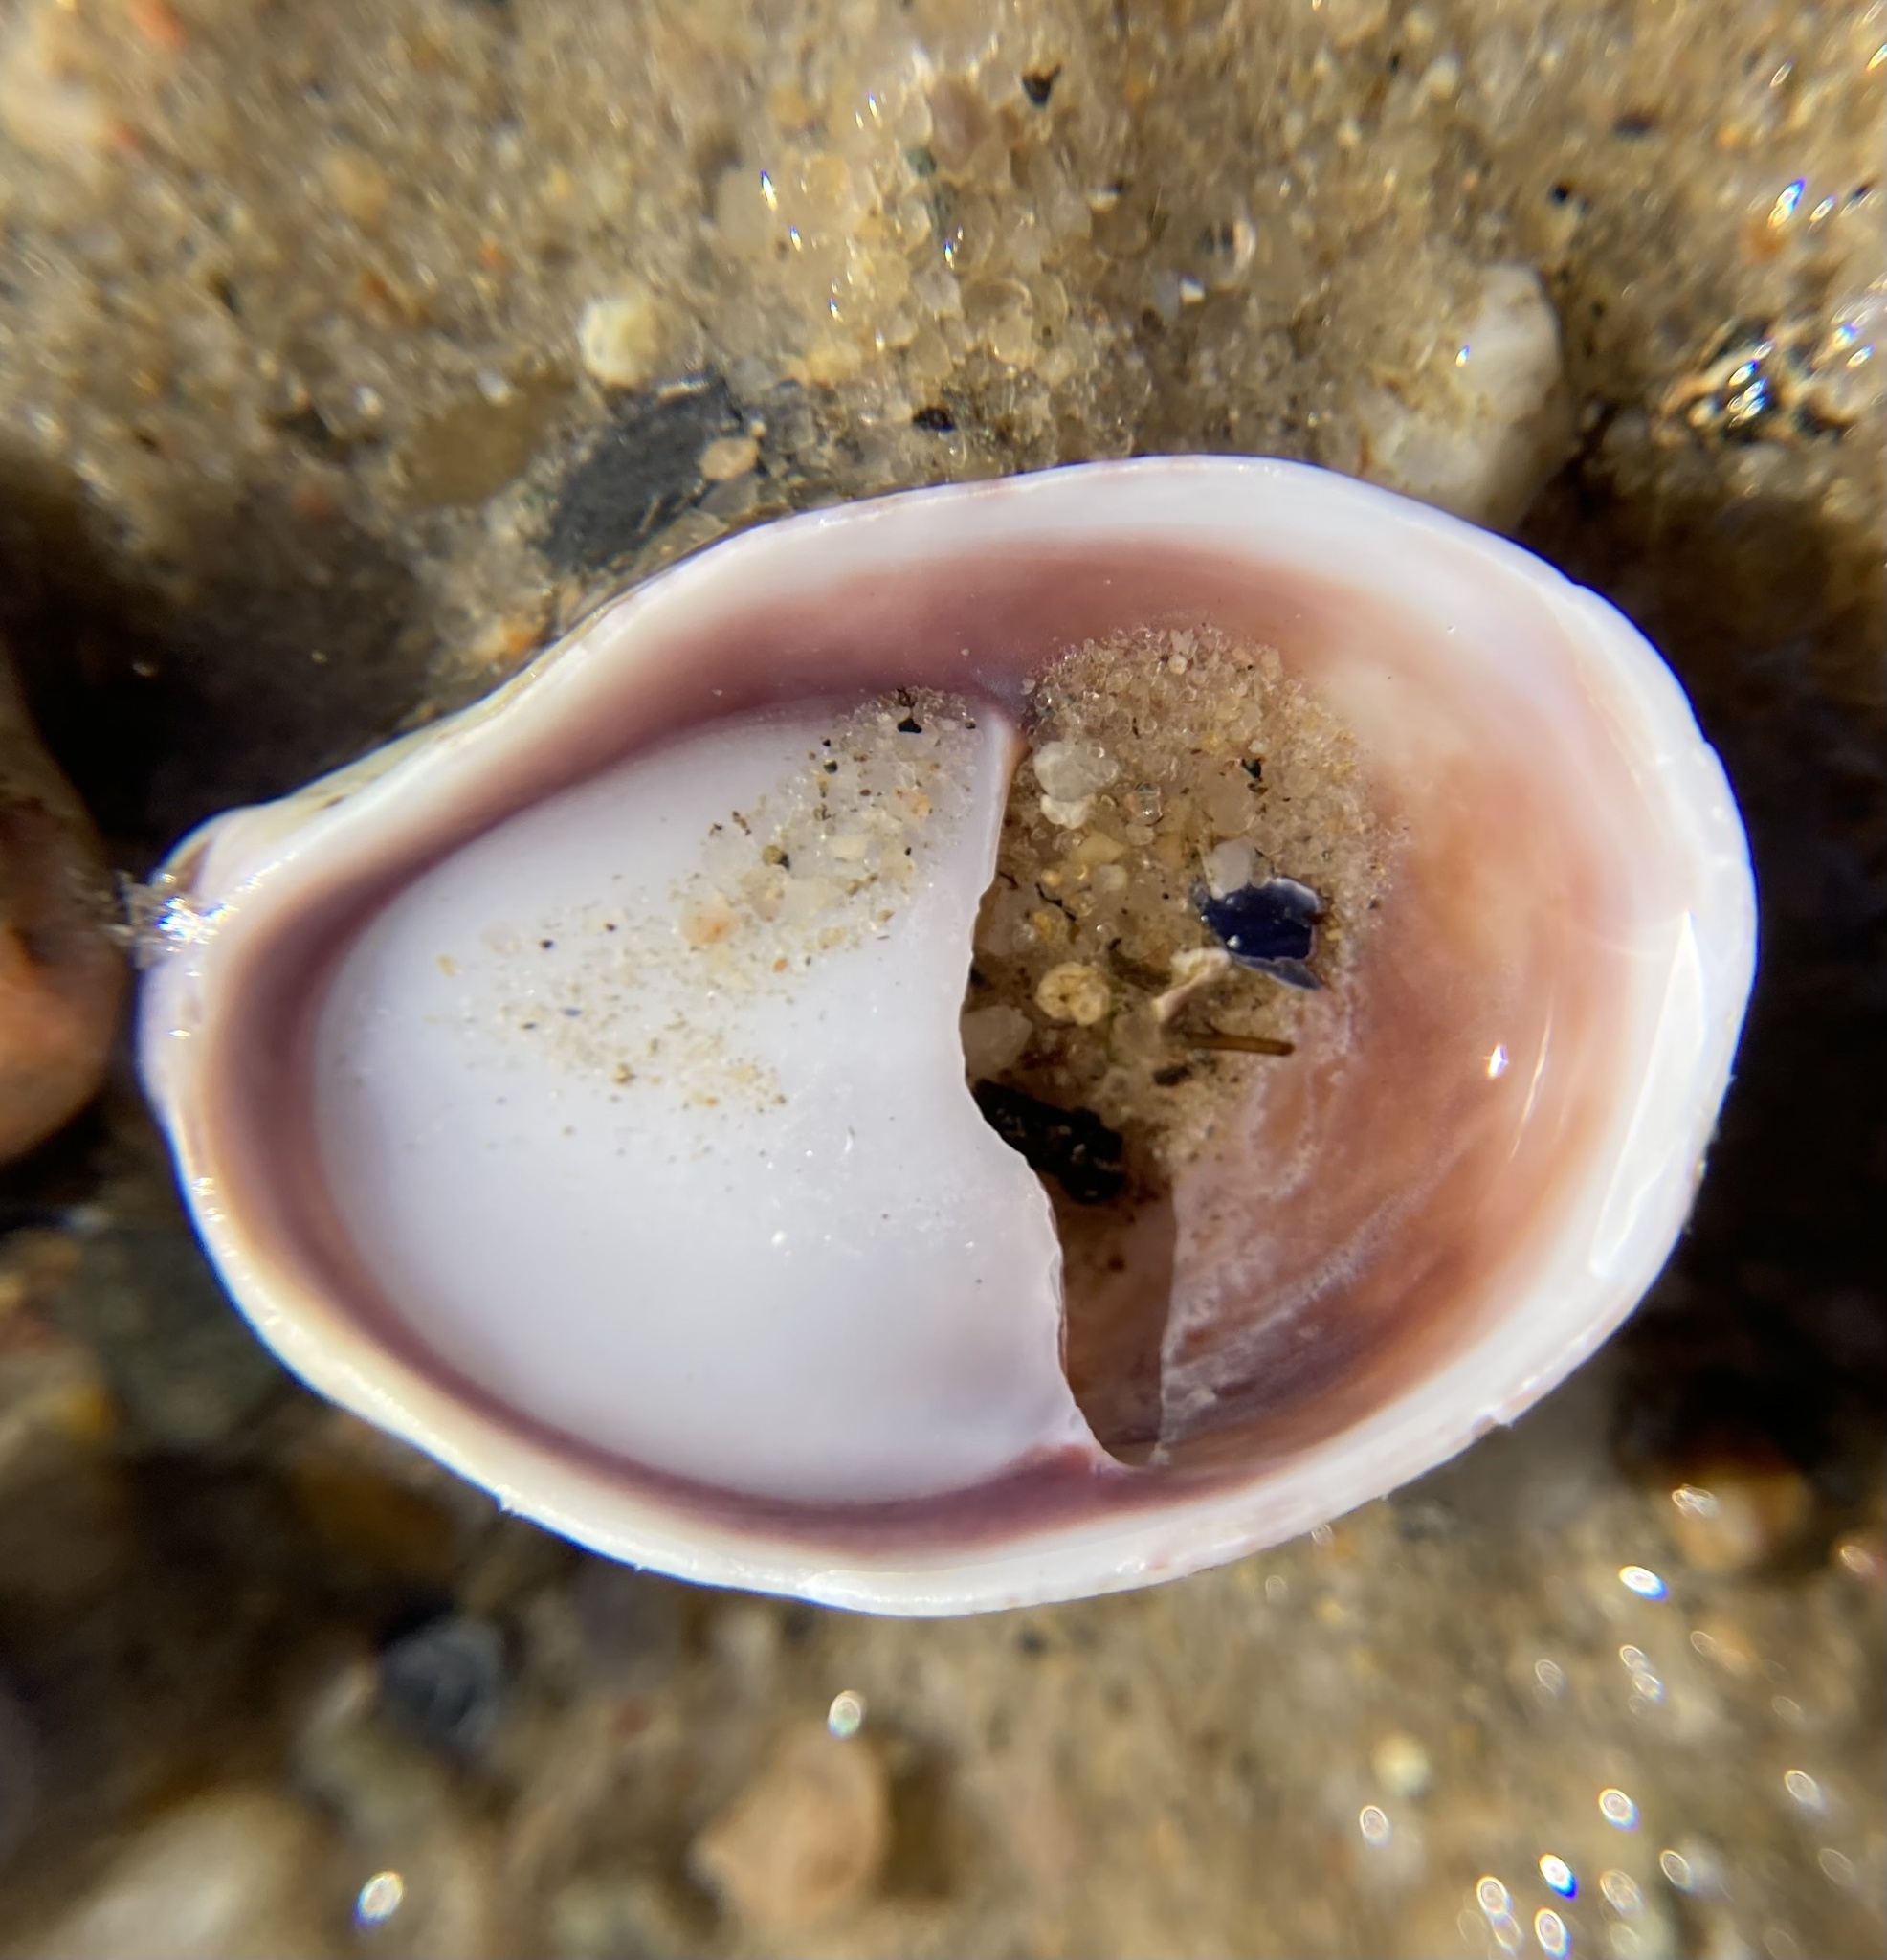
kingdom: Animalia
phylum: Mollusca
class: Gastropoda
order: Littorinimorpha
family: Calyptraeidae
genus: Crepidula
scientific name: Crepidula fornicata
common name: Slipper limpet
